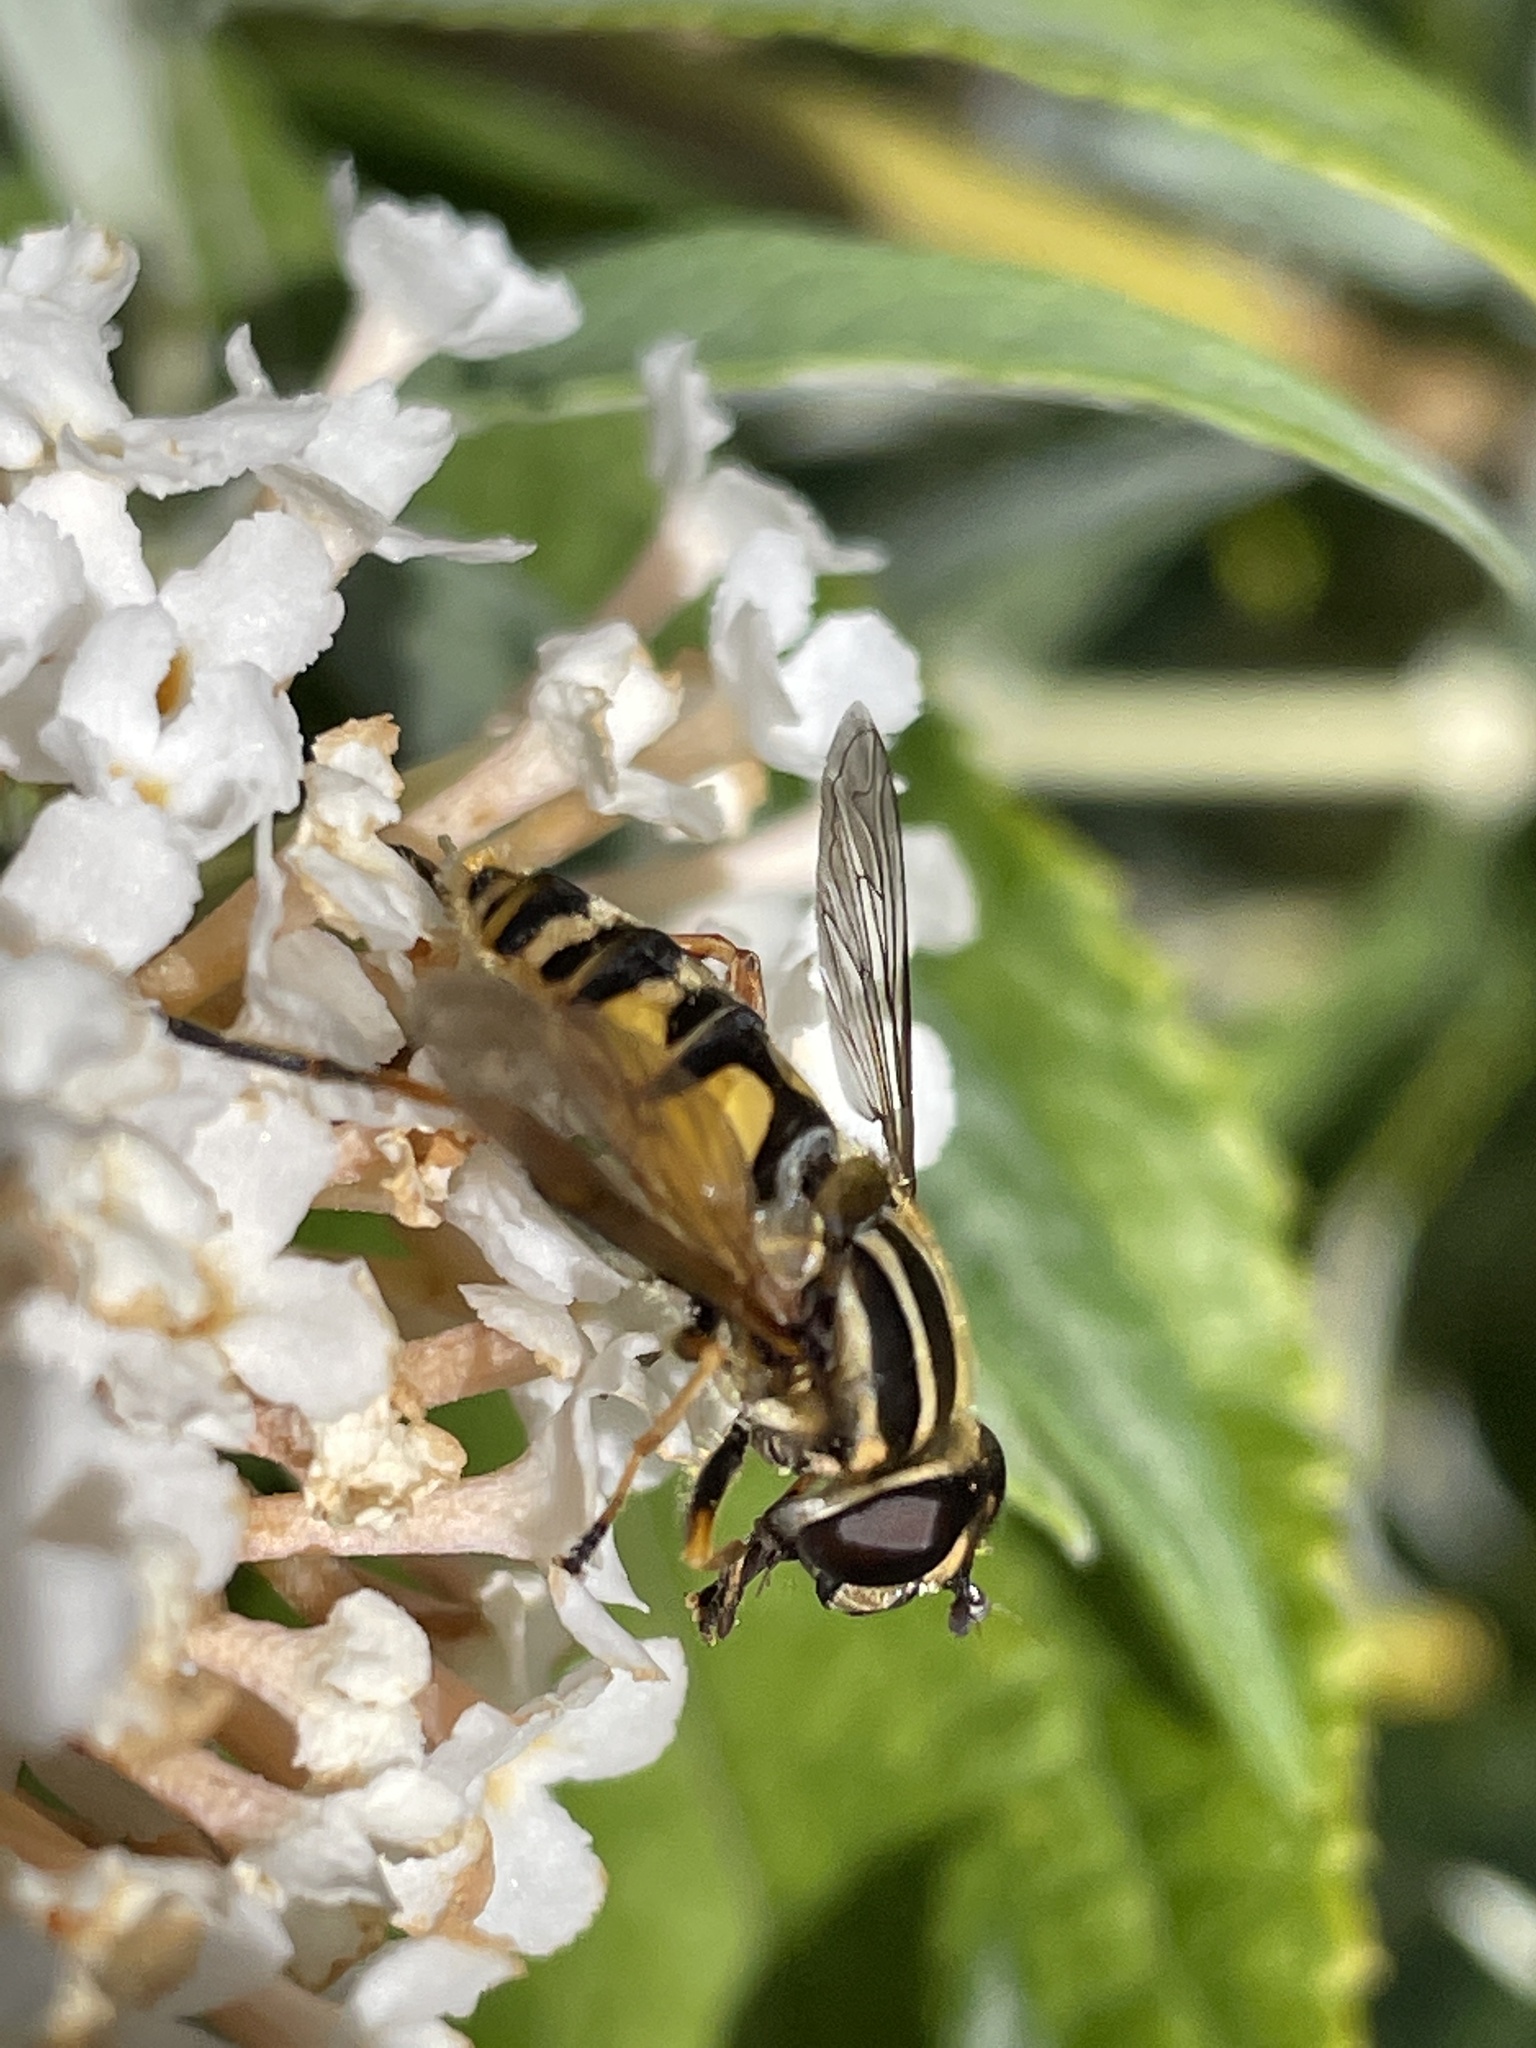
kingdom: Animalia
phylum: Arthropoda
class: Insecta
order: Diptera
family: Syrphidae
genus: Helophilus
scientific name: Helophilus pendulus
